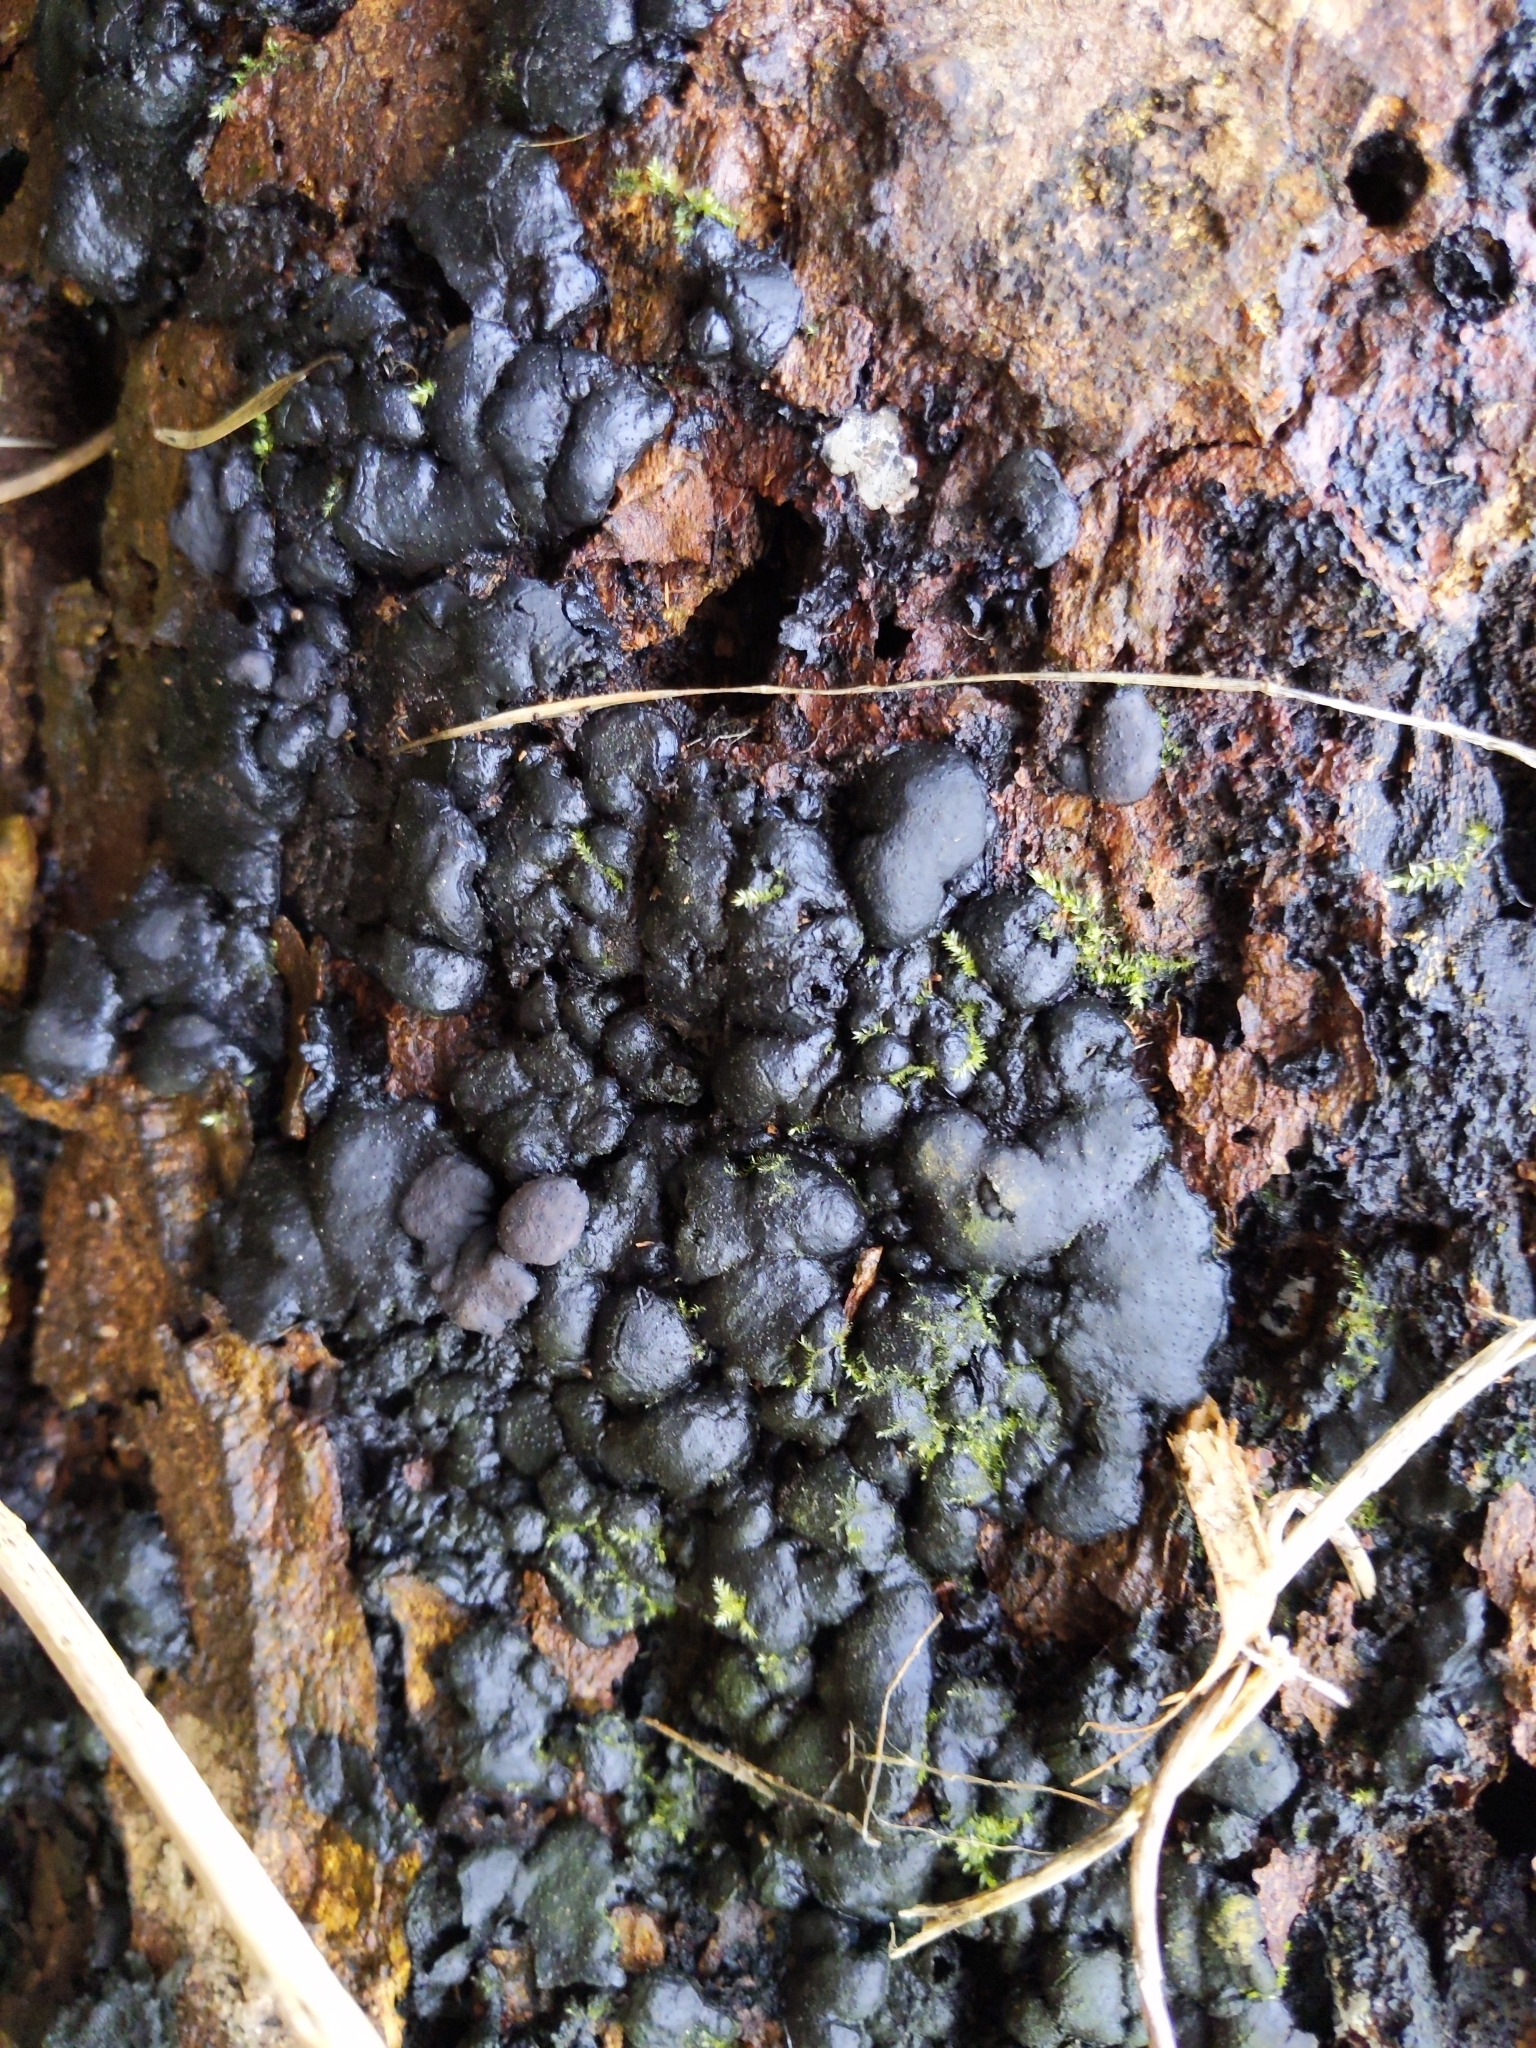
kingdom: Fungi
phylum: Ascomycota
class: Sordariomycetes
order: Xylariales
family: Xylariaceae
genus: Kretzschmaria
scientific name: Kretzschmaria deusta
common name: Brittle cinder
